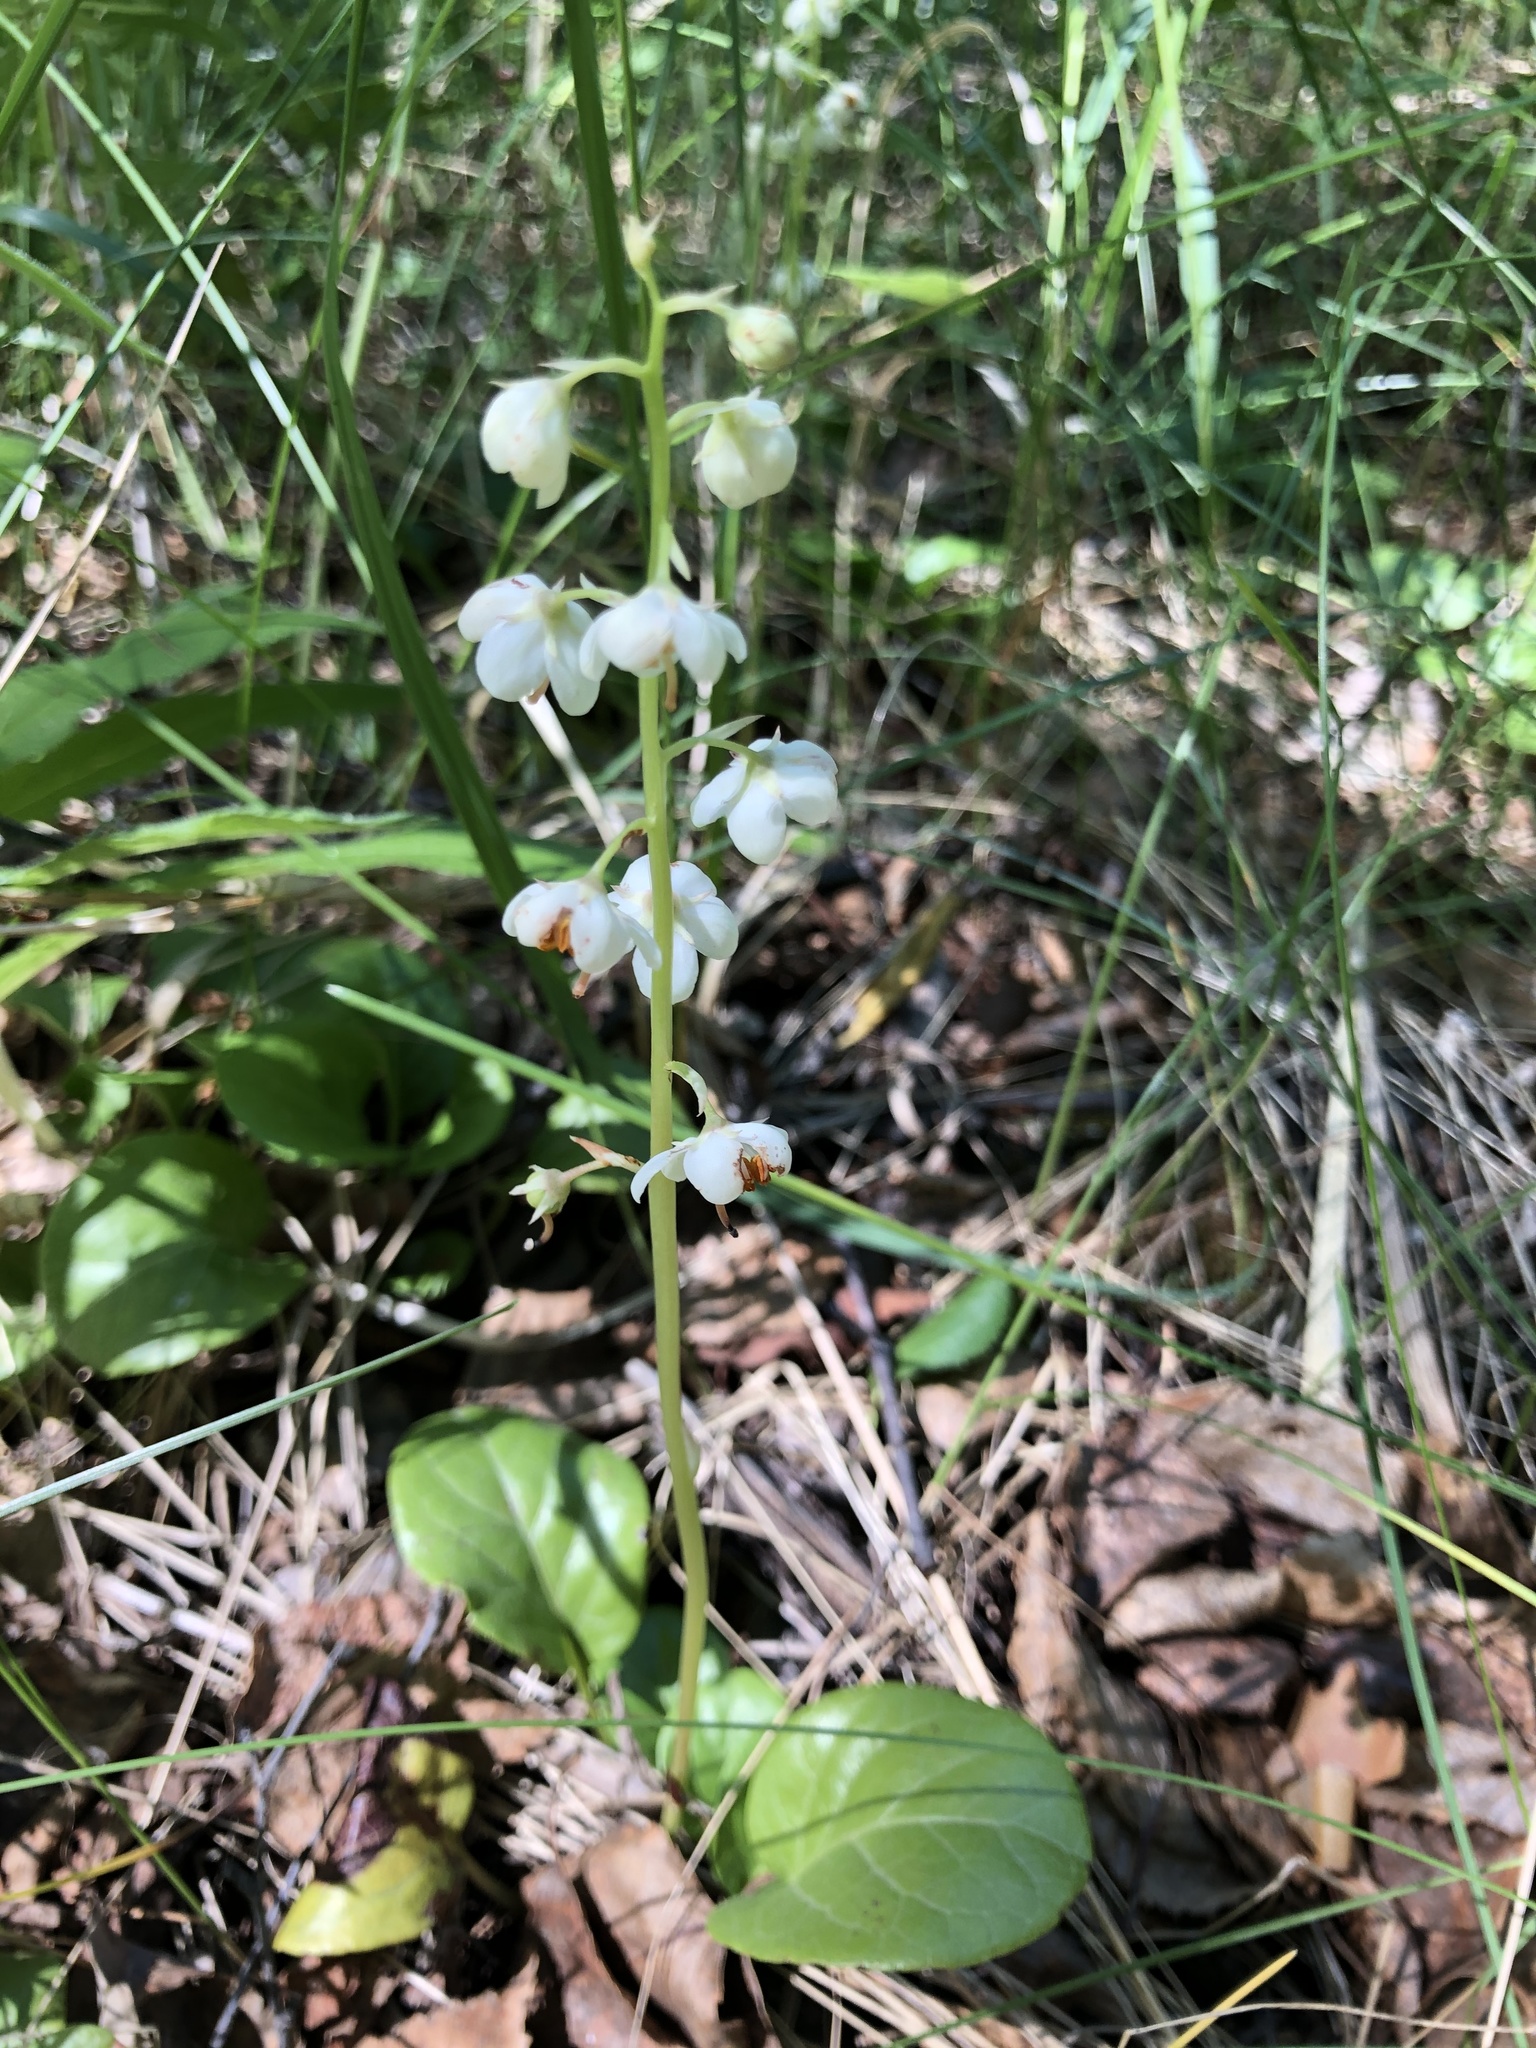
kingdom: Plantae
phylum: Tracheophyta
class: Magnoliopsida
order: Ericales
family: Ericaceae
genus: Pyrola
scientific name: Pyrola rotundifolia
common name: Round-leaved wintergreen
